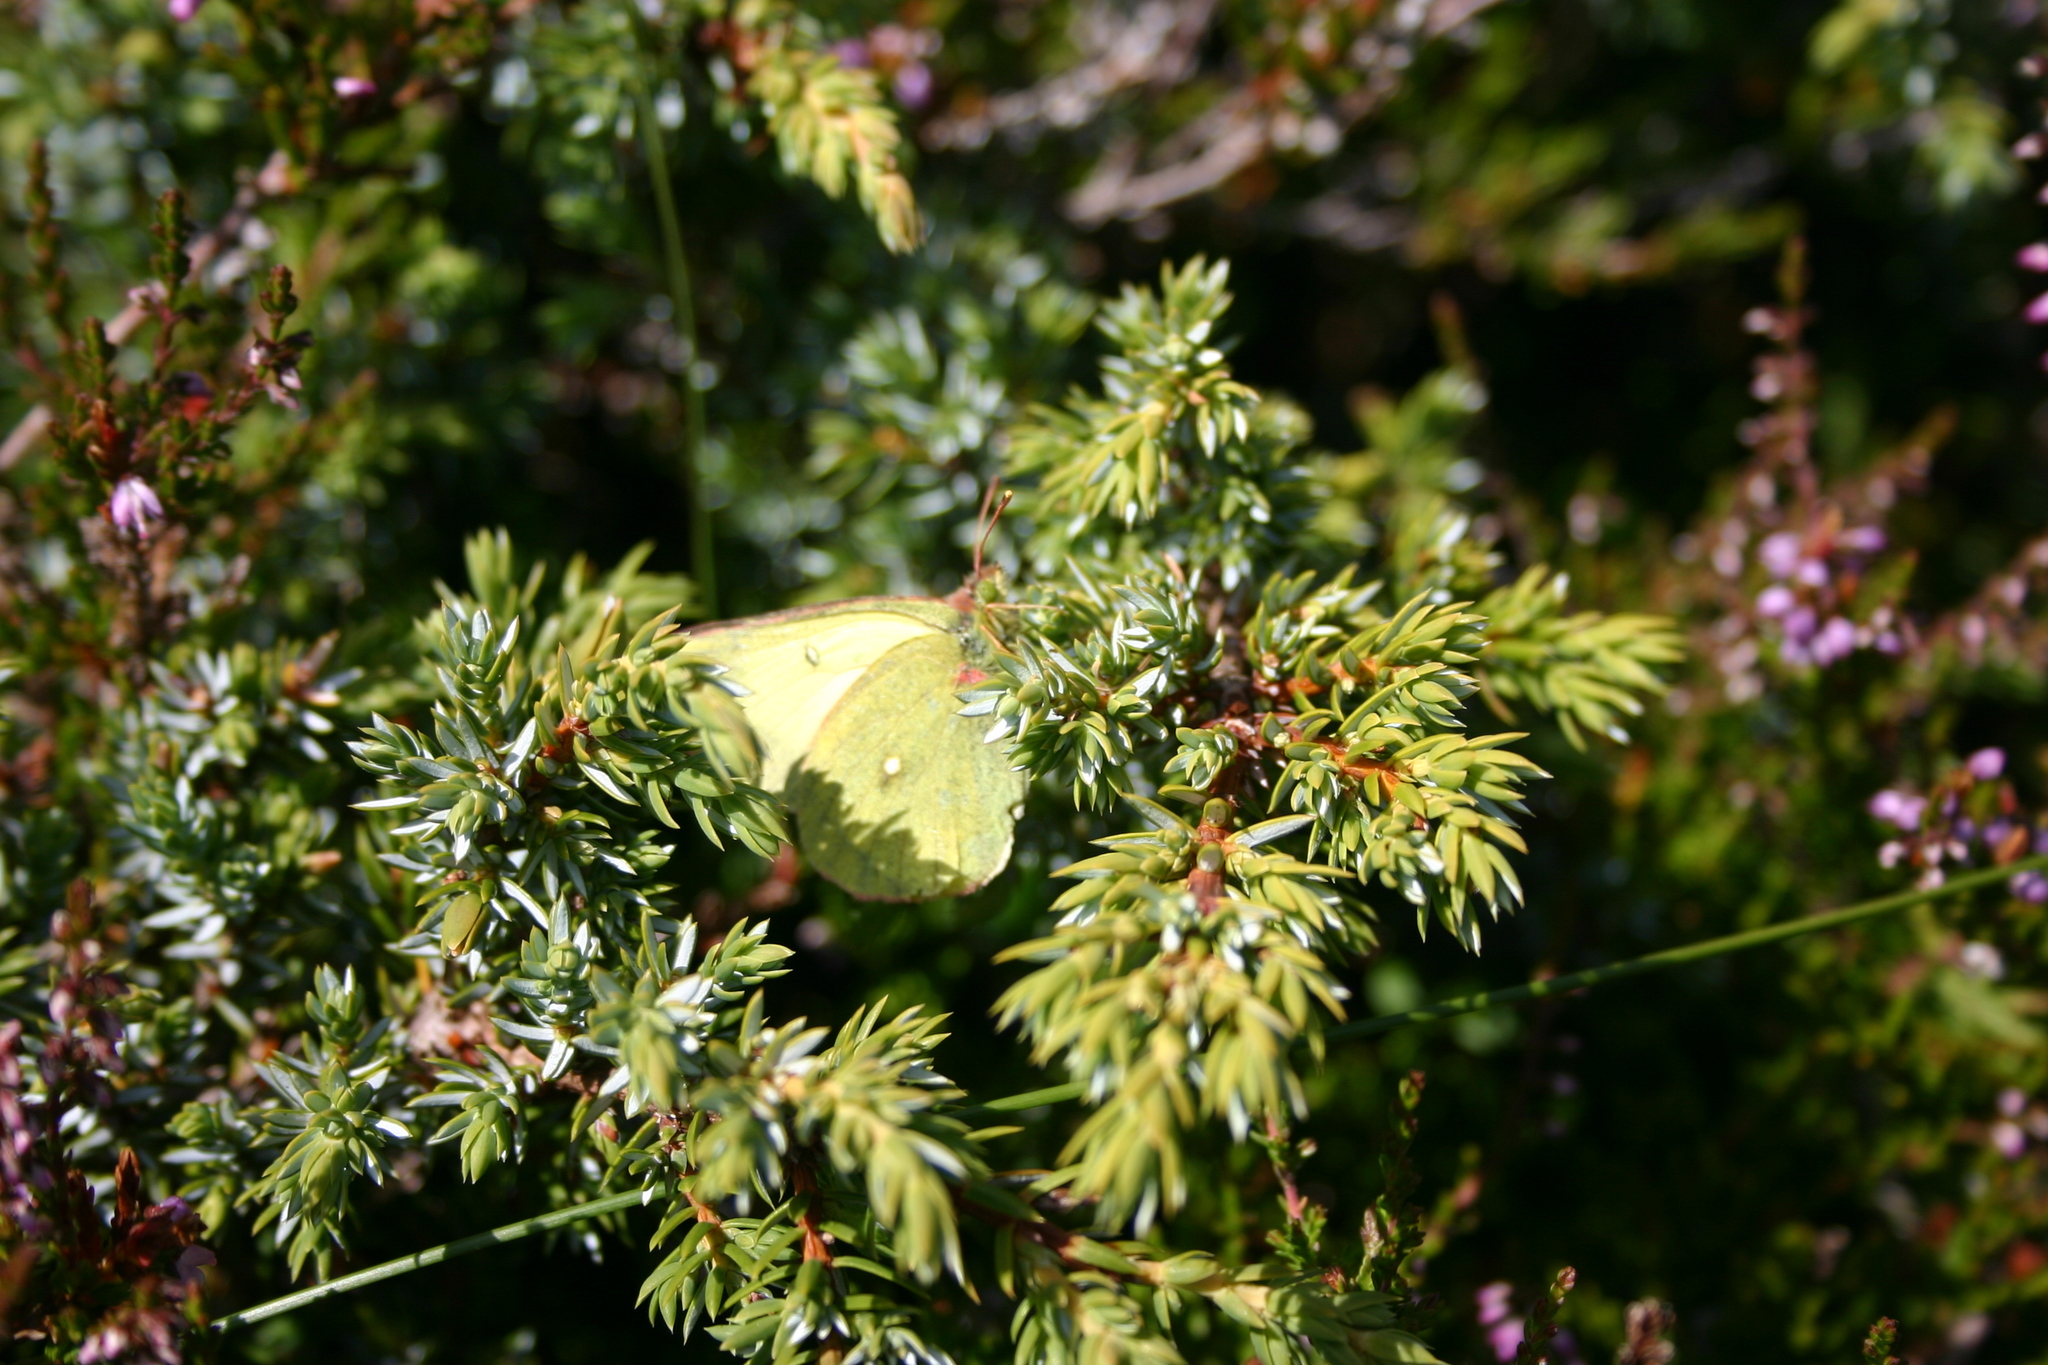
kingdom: Animalia
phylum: Arthropoda
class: Insecta
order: Lepidoptera
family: Pieridae
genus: Colias
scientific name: Colias palaeno
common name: Moorland clouded yellow
